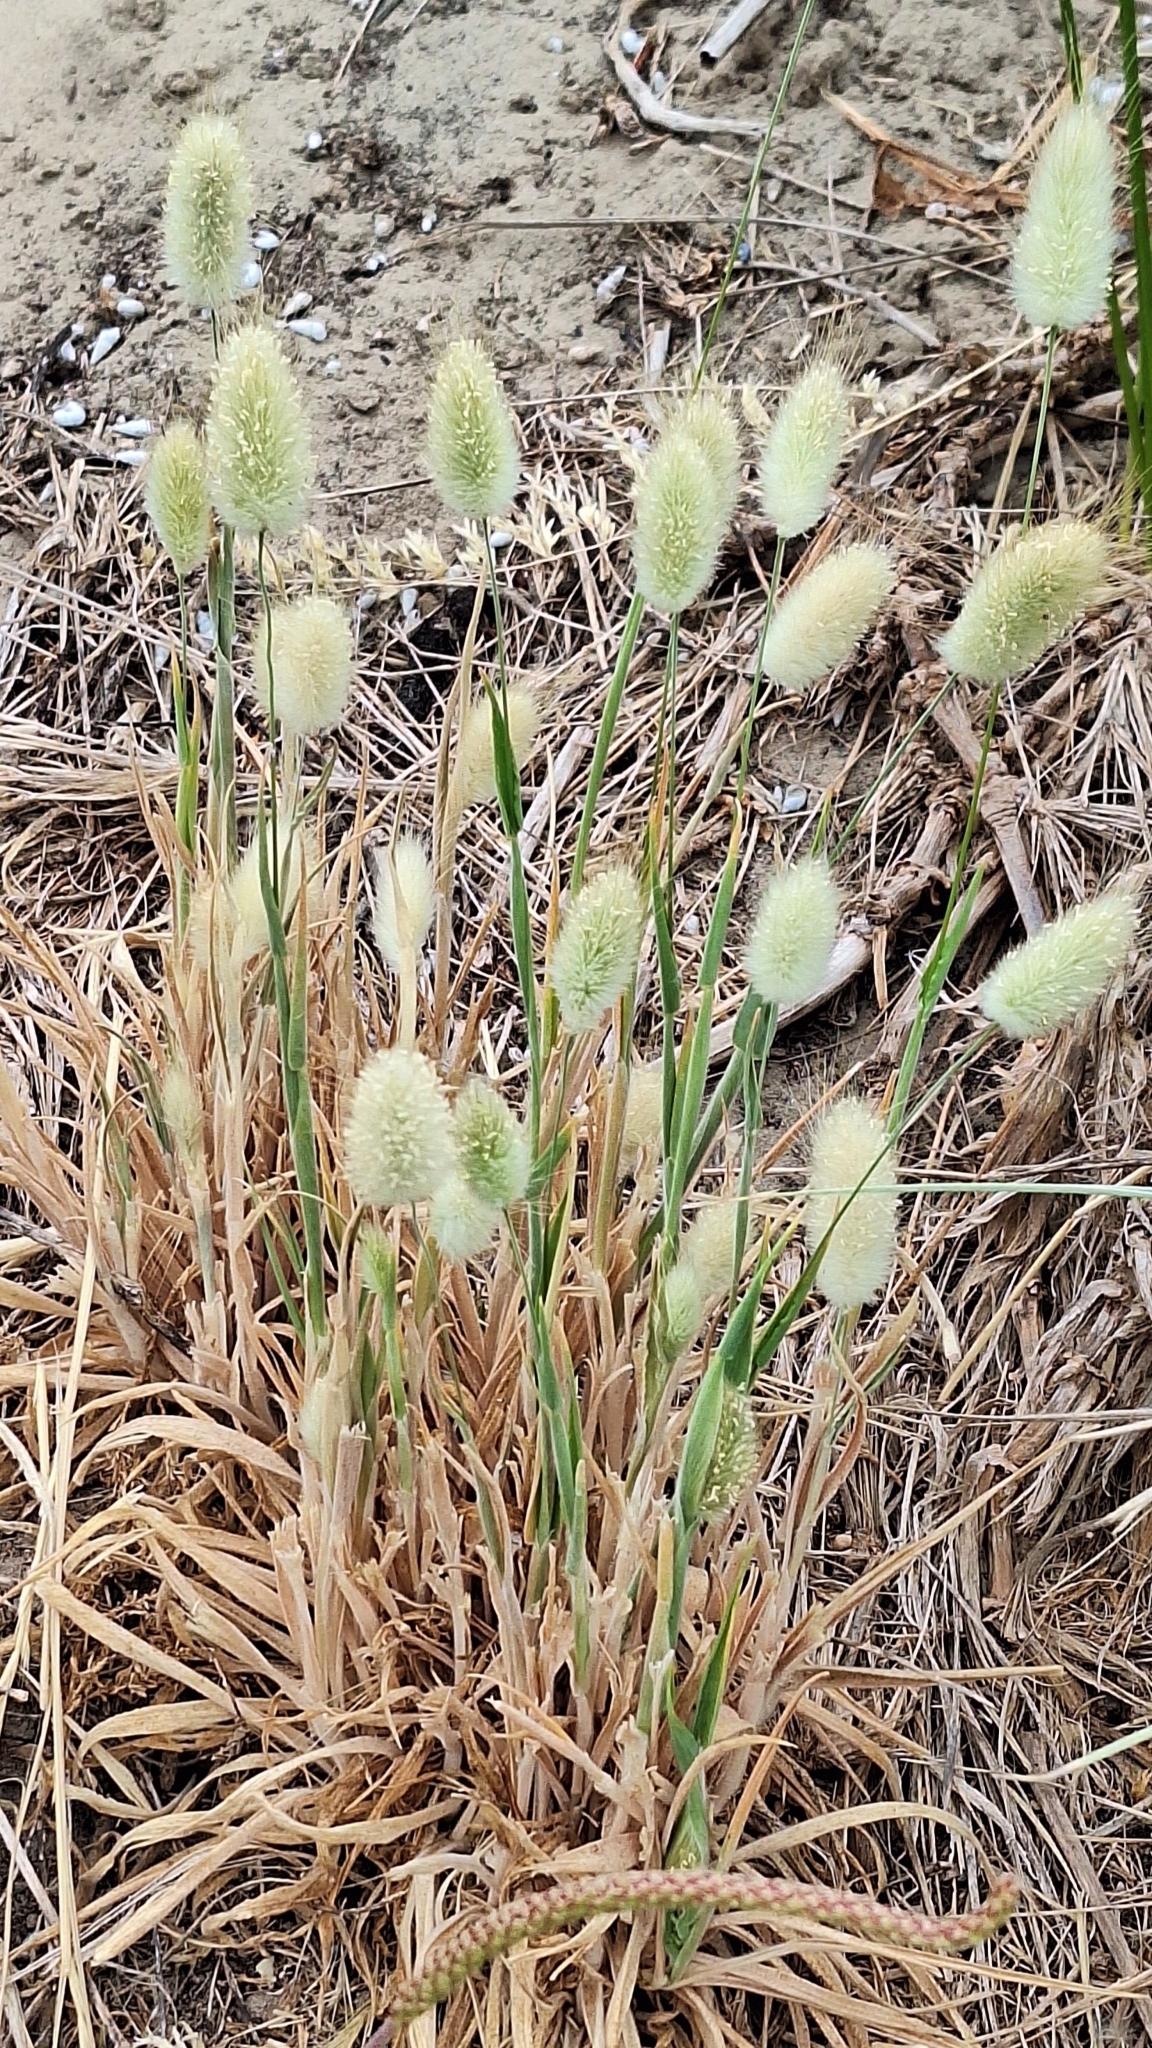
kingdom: Plantae
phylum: Tracheophyta
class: Liliopsida
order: Poales
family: Poaceae
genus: Lagurus
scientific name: Lagurus ovatus
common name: Hare's-tail
